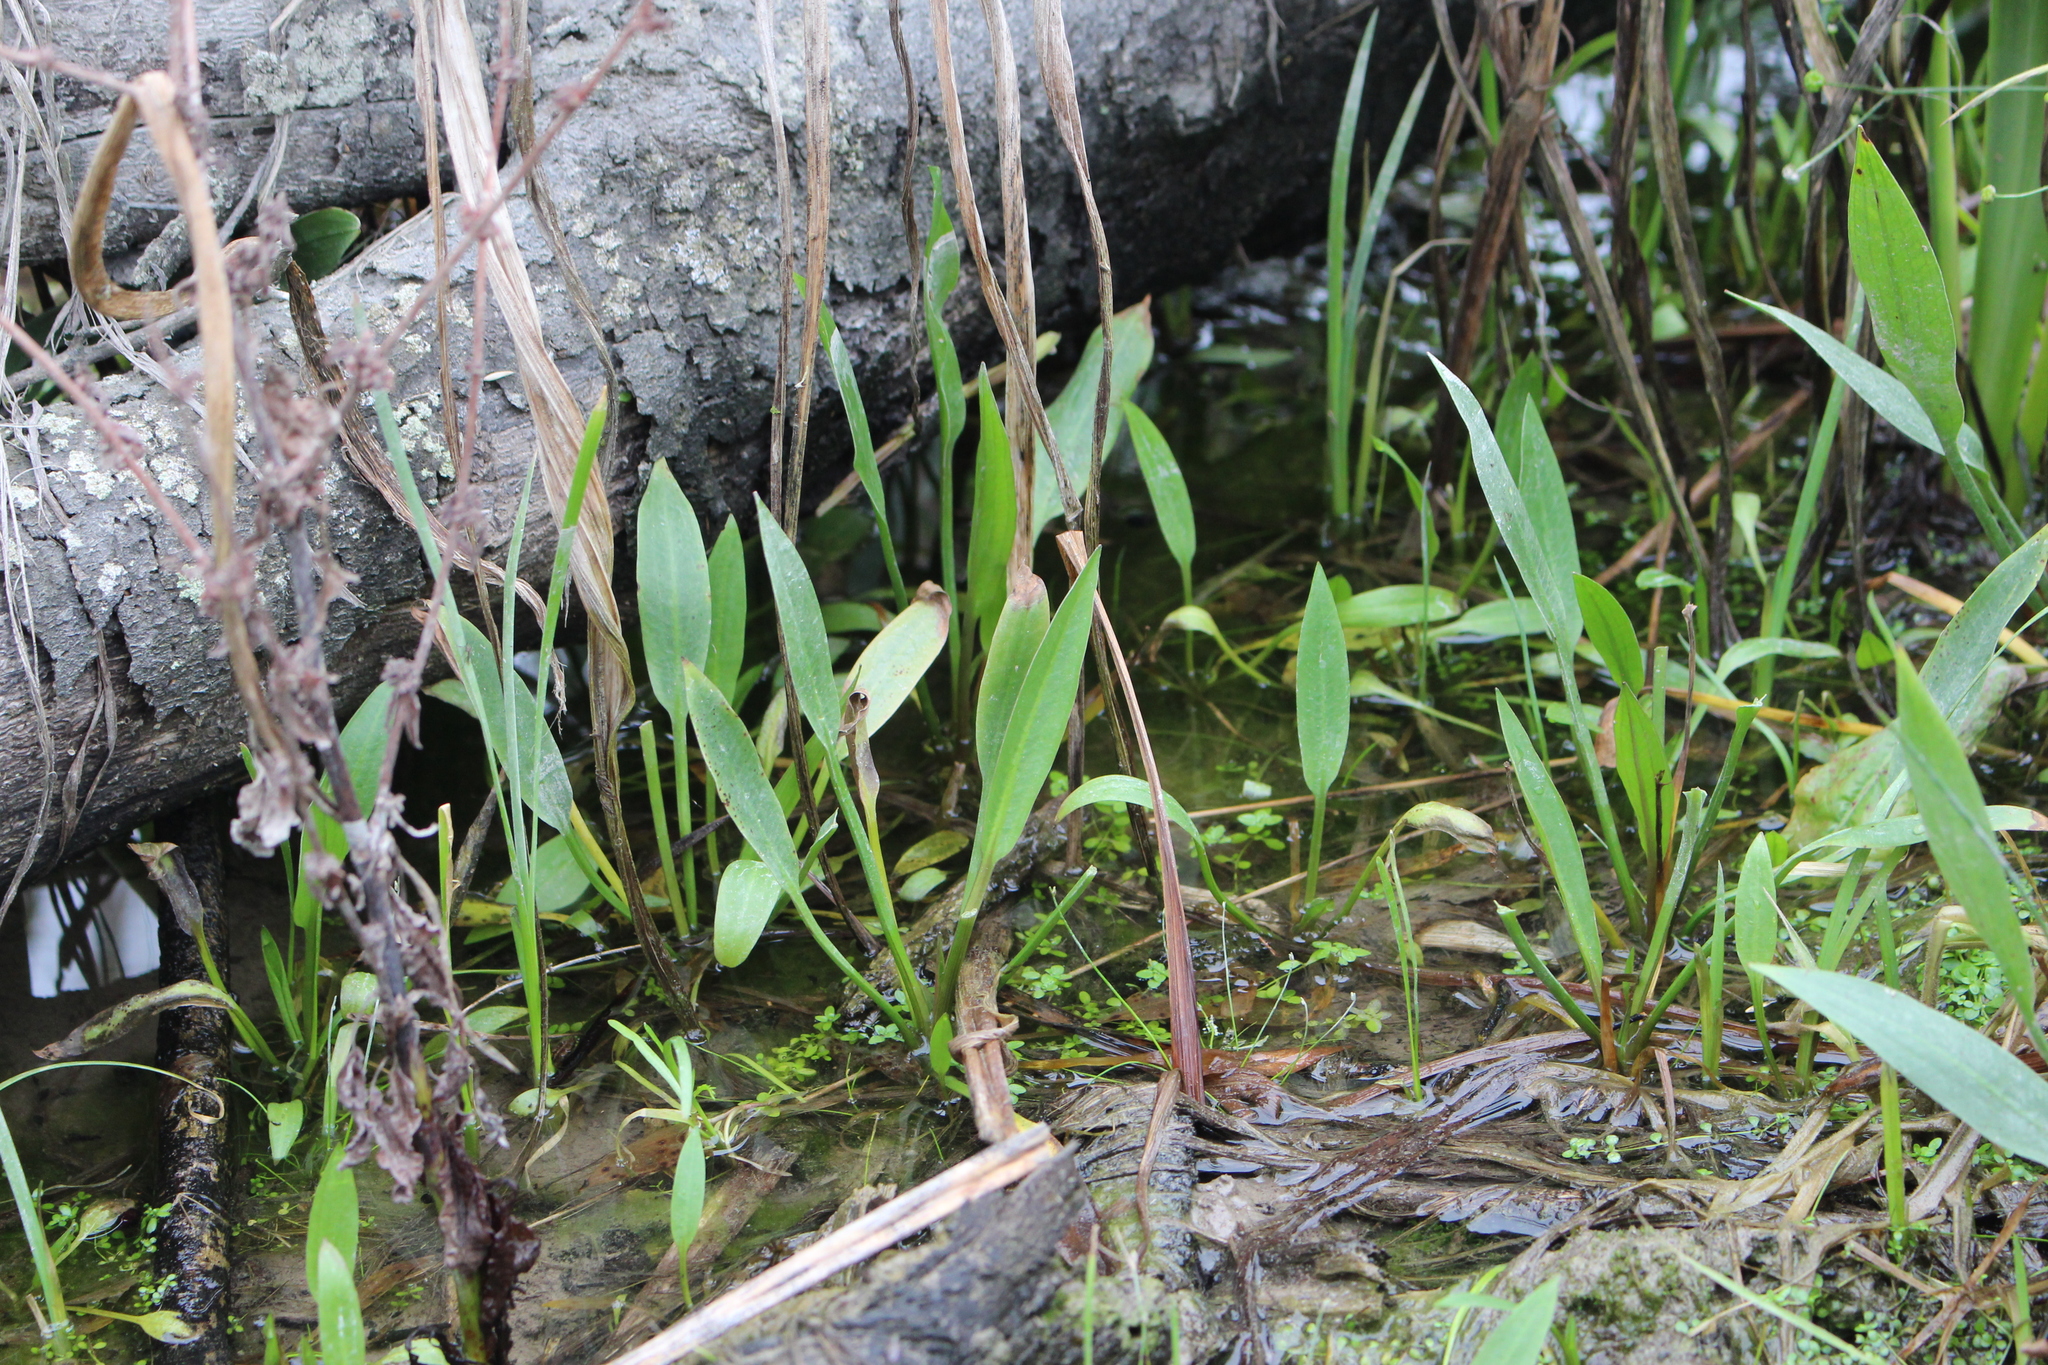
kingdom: Plantae
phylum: Tracheophyta
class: Liliopsida
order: Alismatales
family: Alismataceae
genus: Alisma
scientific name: Alisma lanceolatum
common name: Narrow-leaved water-plantain
